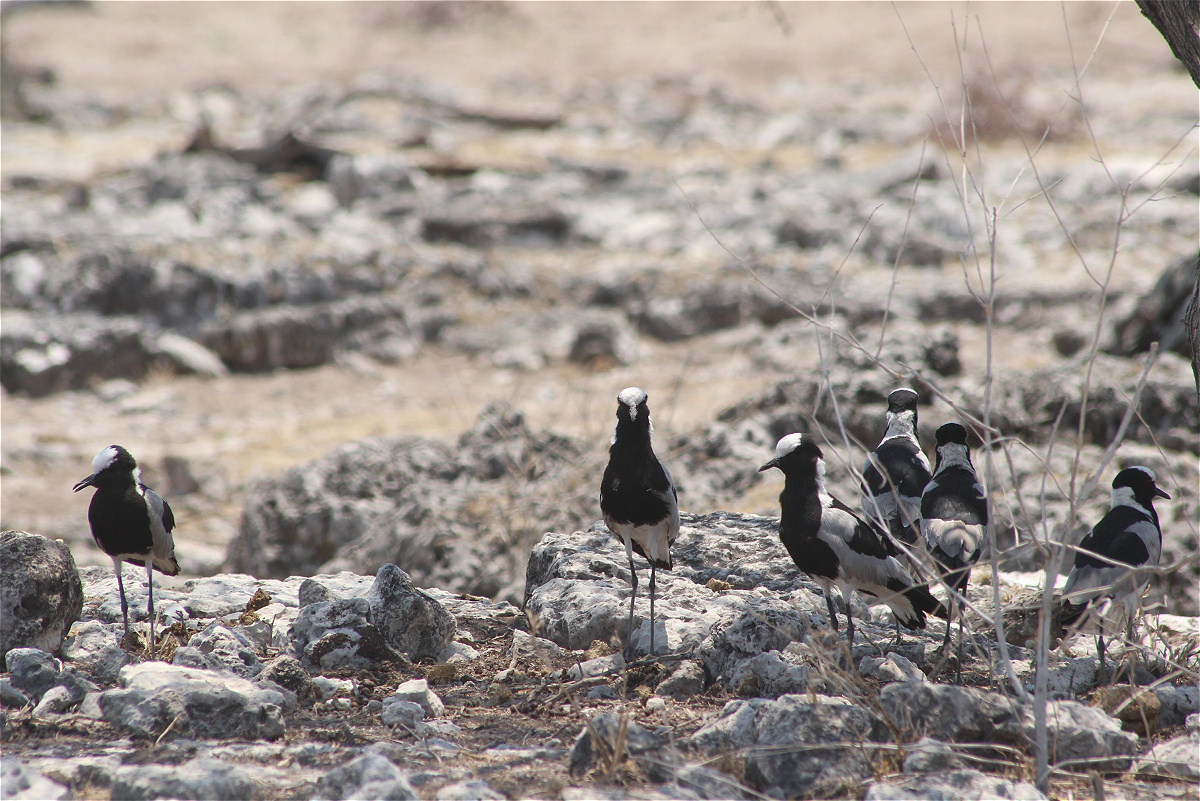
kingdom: Animalia
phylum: Chordata
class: Aves
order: Charadriiformes
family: Charadriidae
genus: Vanellus
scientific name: Vanellus armatus
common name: Blacksmith lapwing
